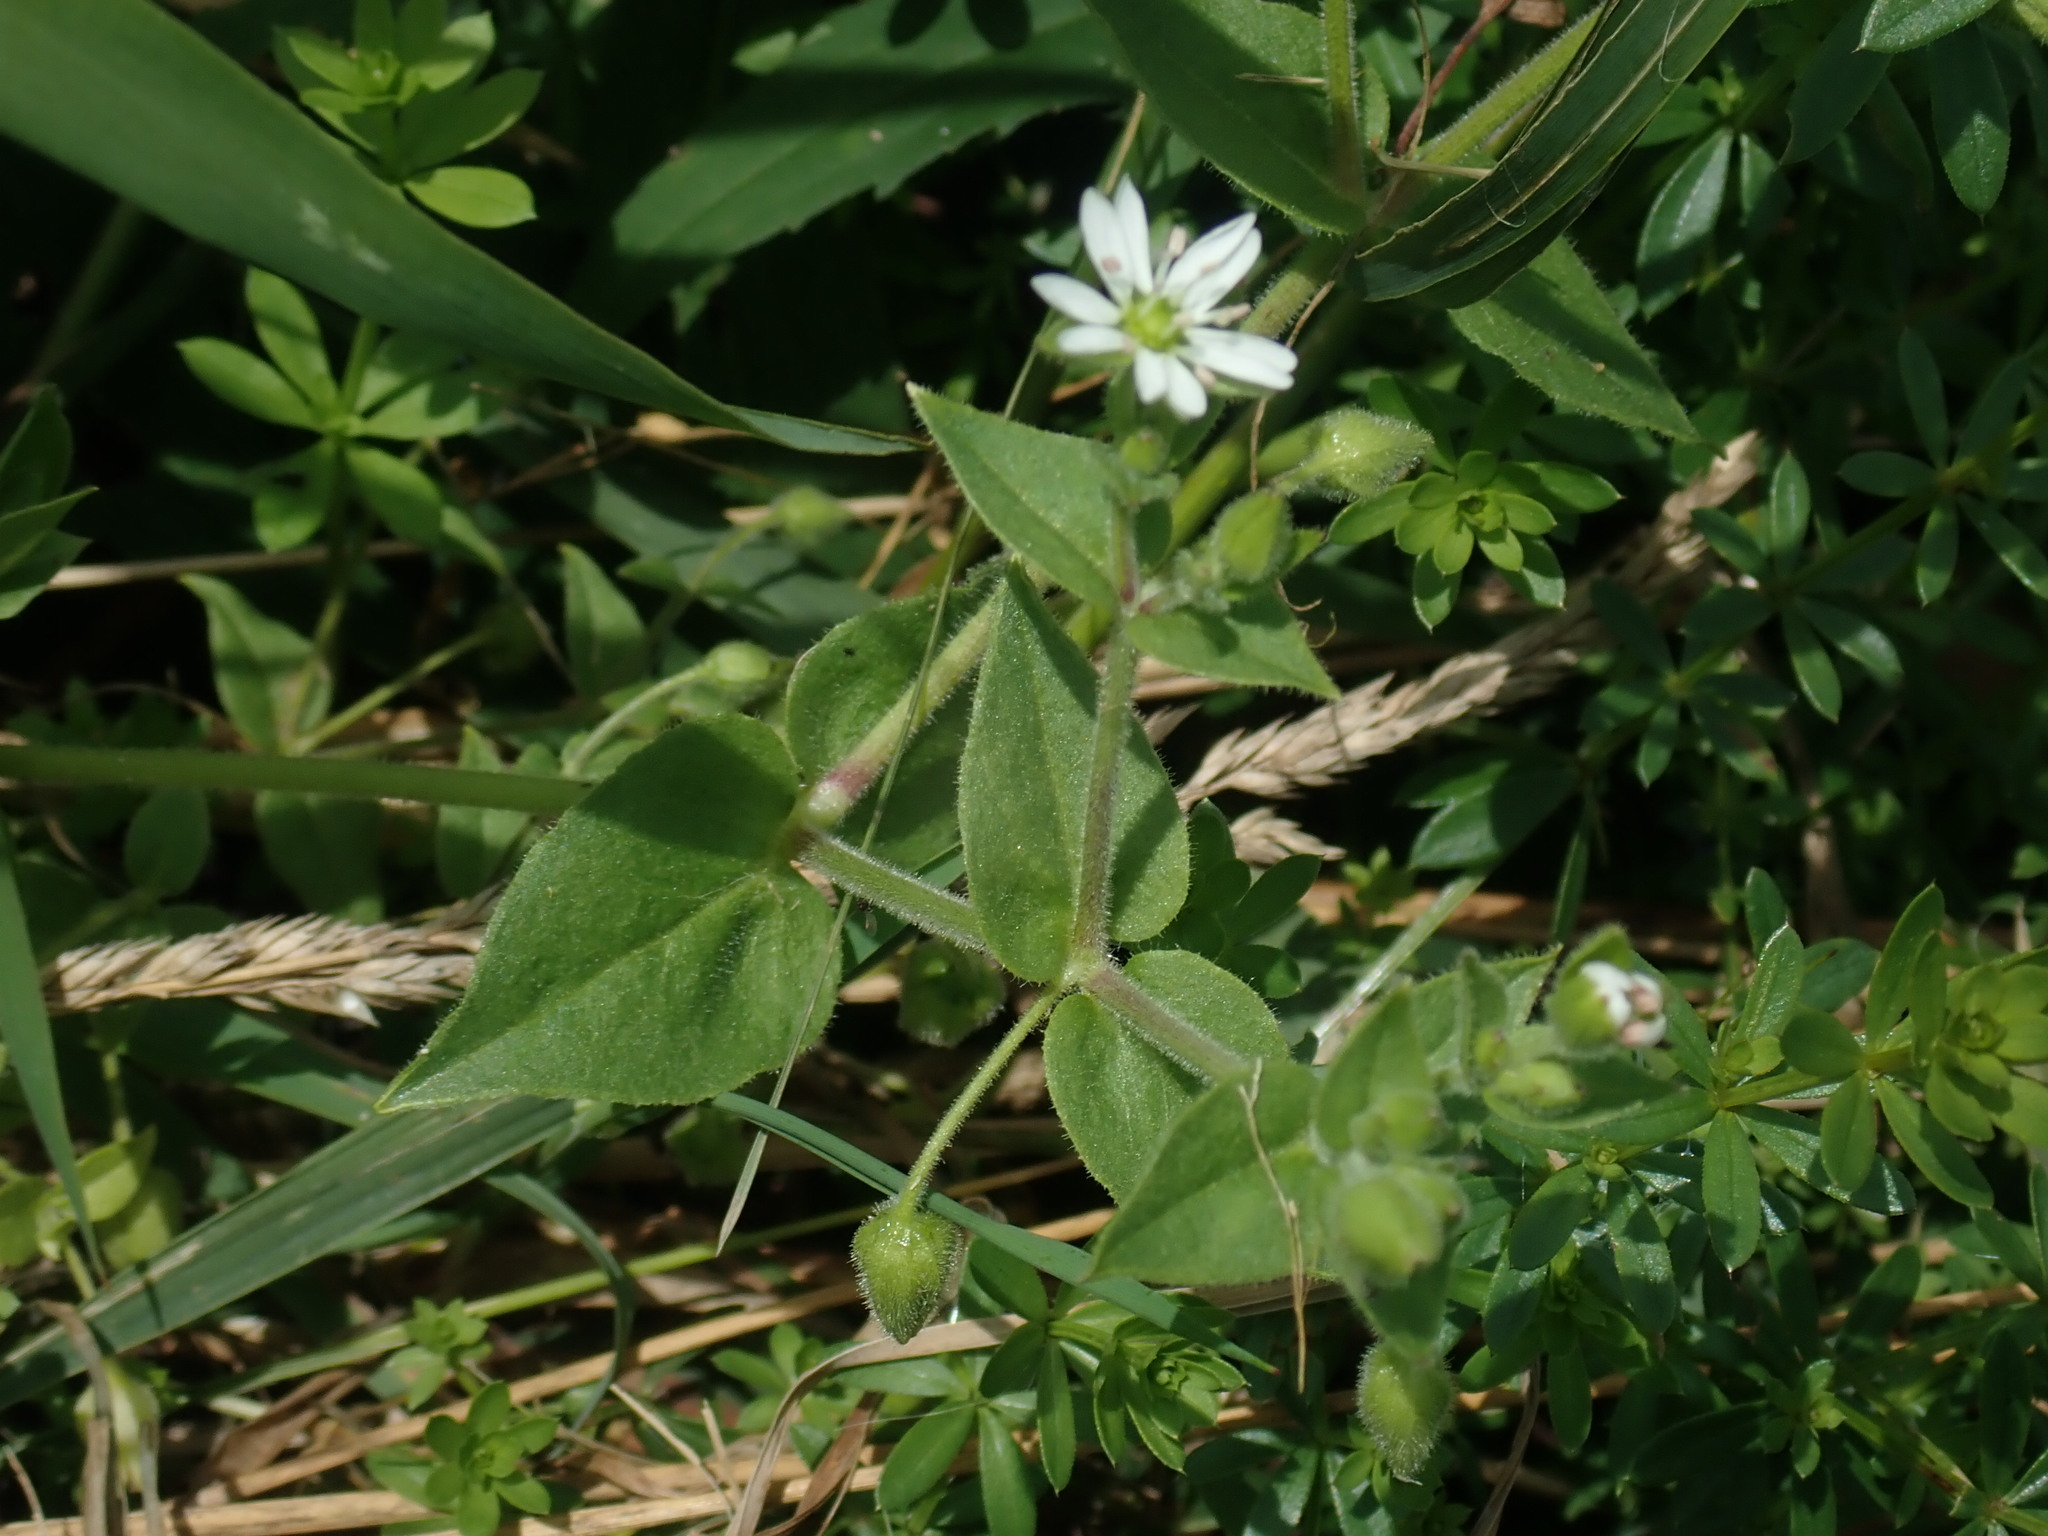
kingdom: Plantae
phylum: Tracheophyta
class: Magnoliopsida
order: Caryophyllales
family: Caryophyllaceae
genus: Stellaria
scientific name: Stellaria aquatica
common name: Water chickweed
